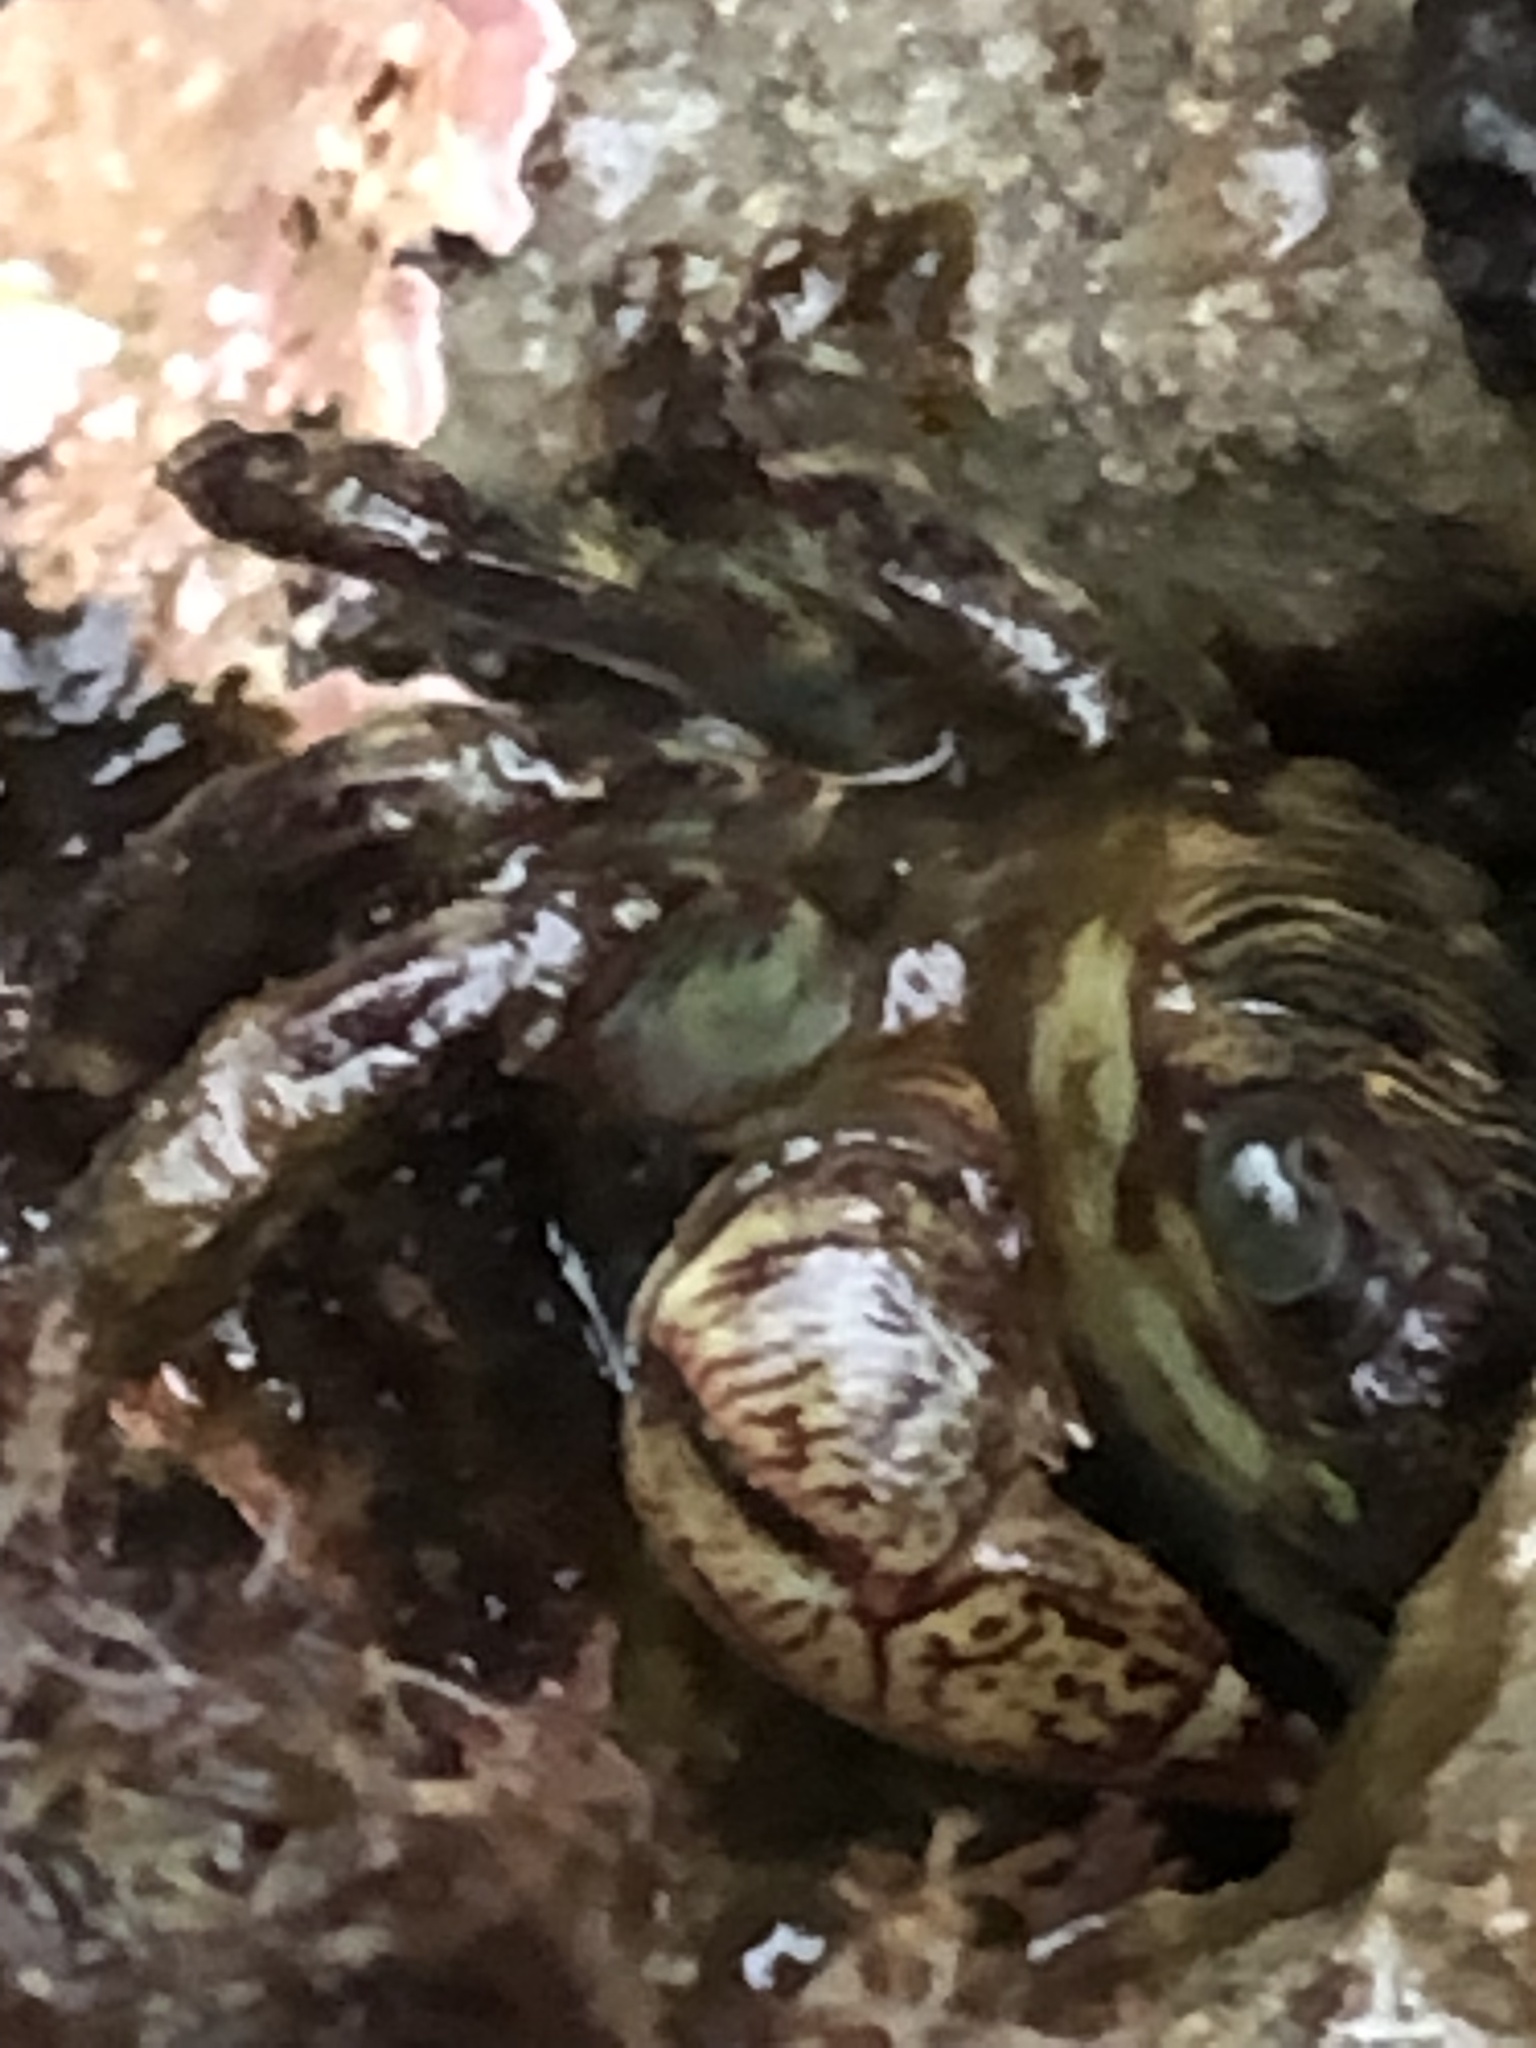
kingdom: Animalia
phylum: Arthropoda
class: Malacostraca
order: Decapoda
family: Grapsidae
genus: Pachygrapsus
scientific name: Pachygrapsus crassipes
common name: Striped shore crab
